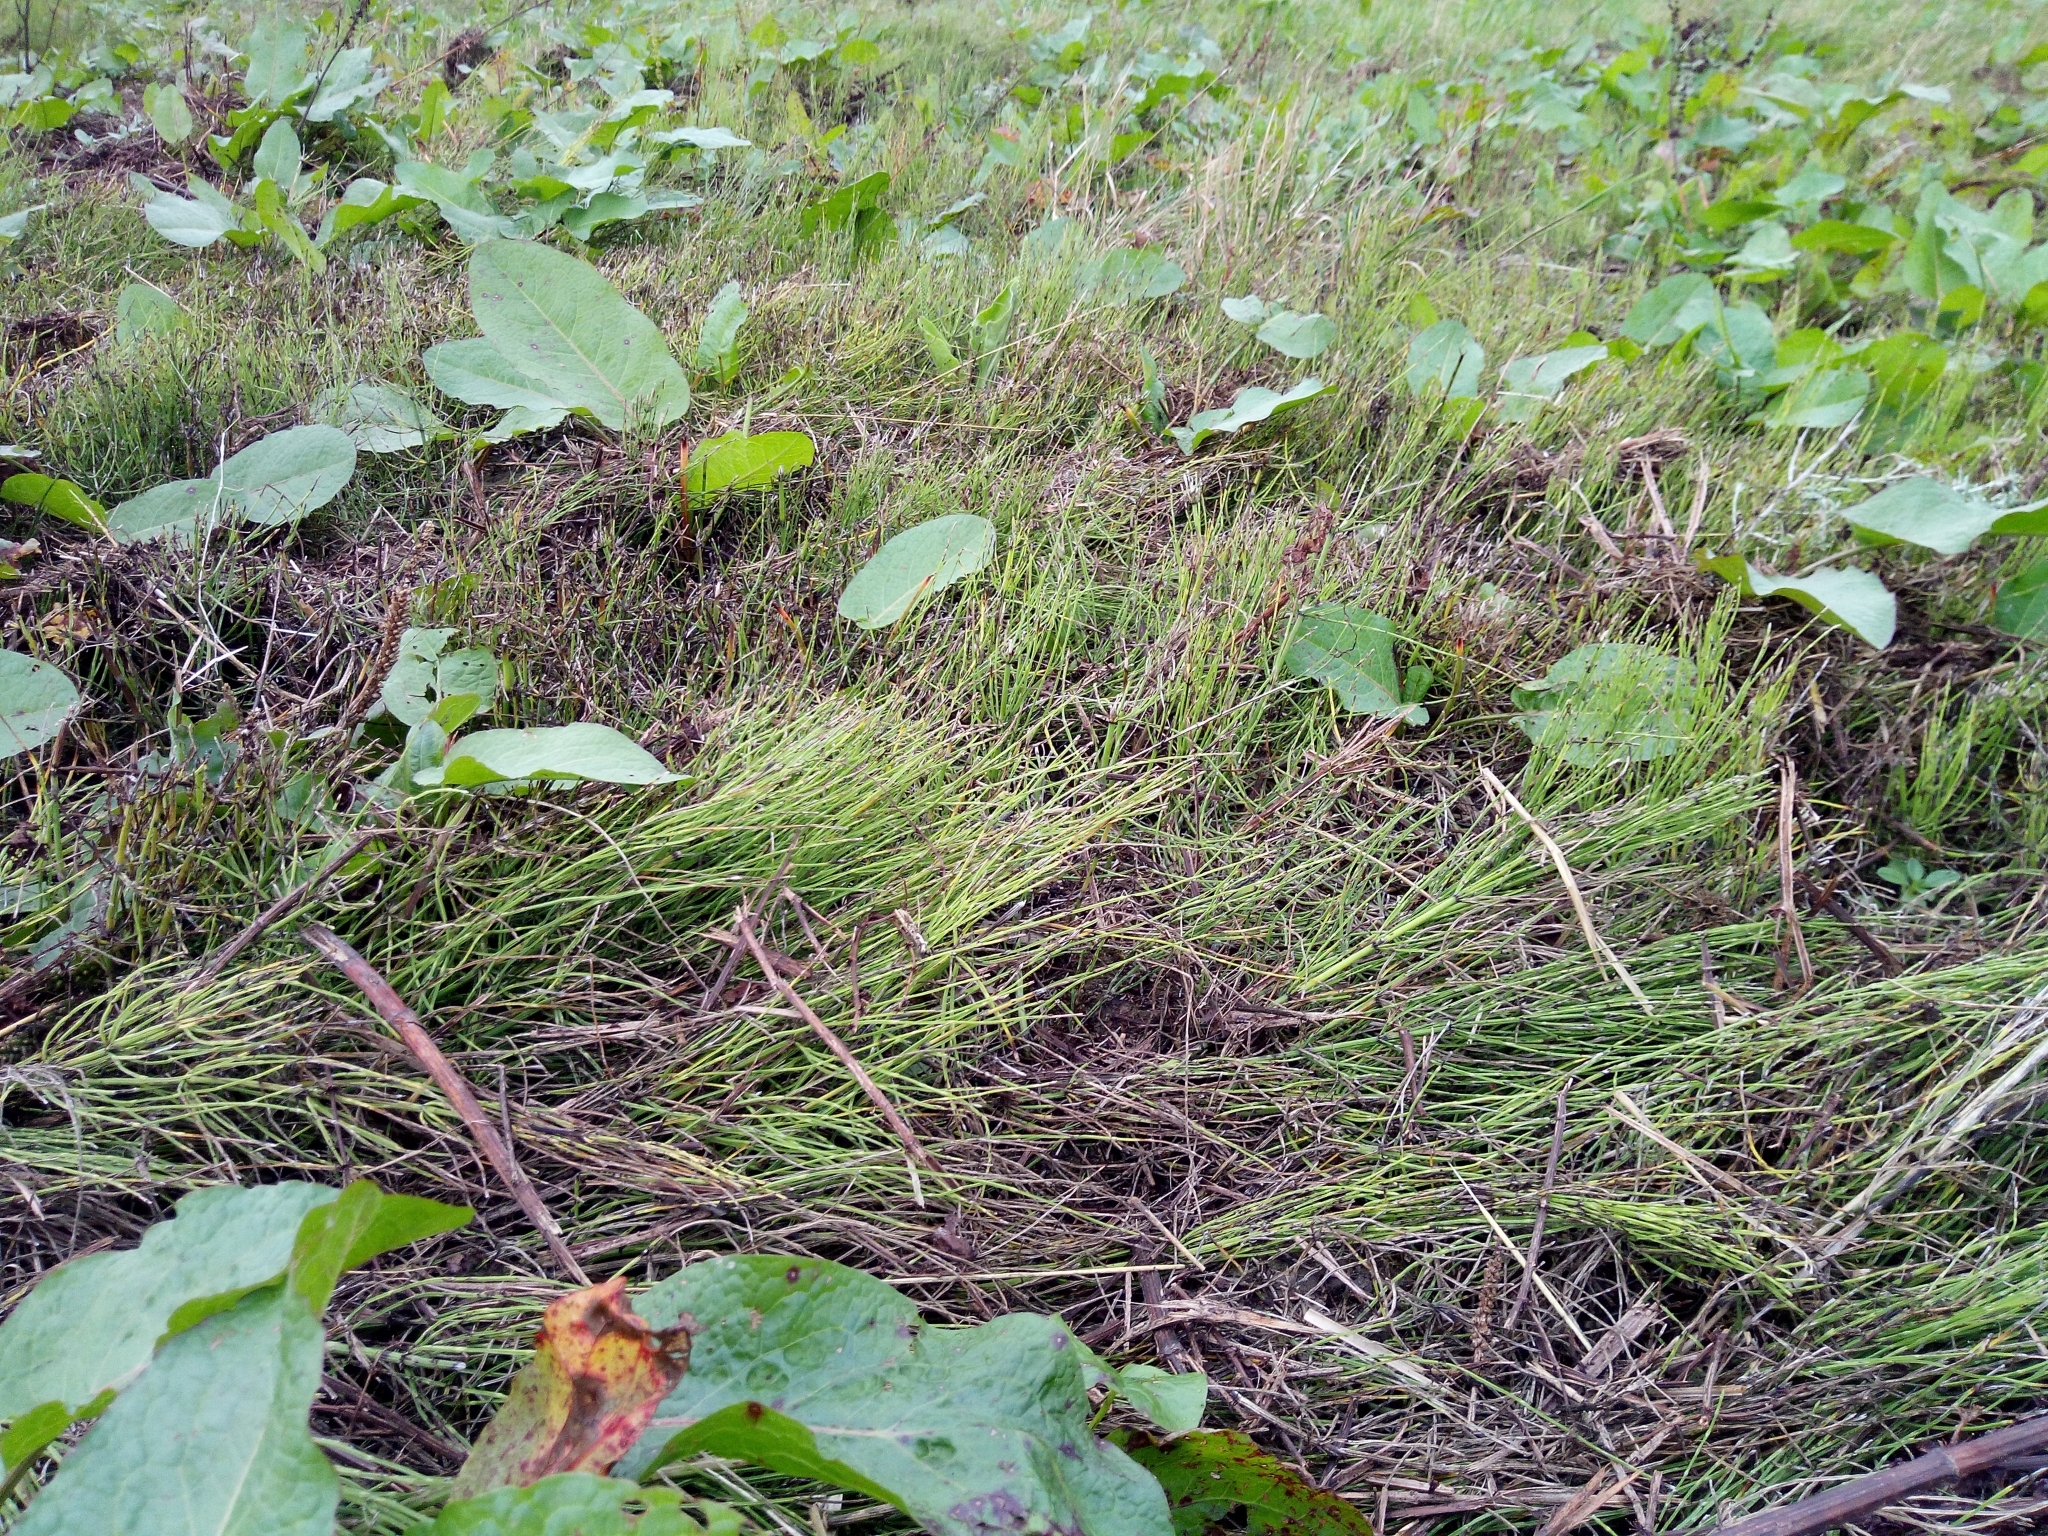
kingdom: Plantae
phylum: Tracheophyta
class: Polypodiopsida
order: Equisetales
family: Equisetaceae
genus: Equisetum
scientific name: Equisetum arvense
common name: Field horsetail
